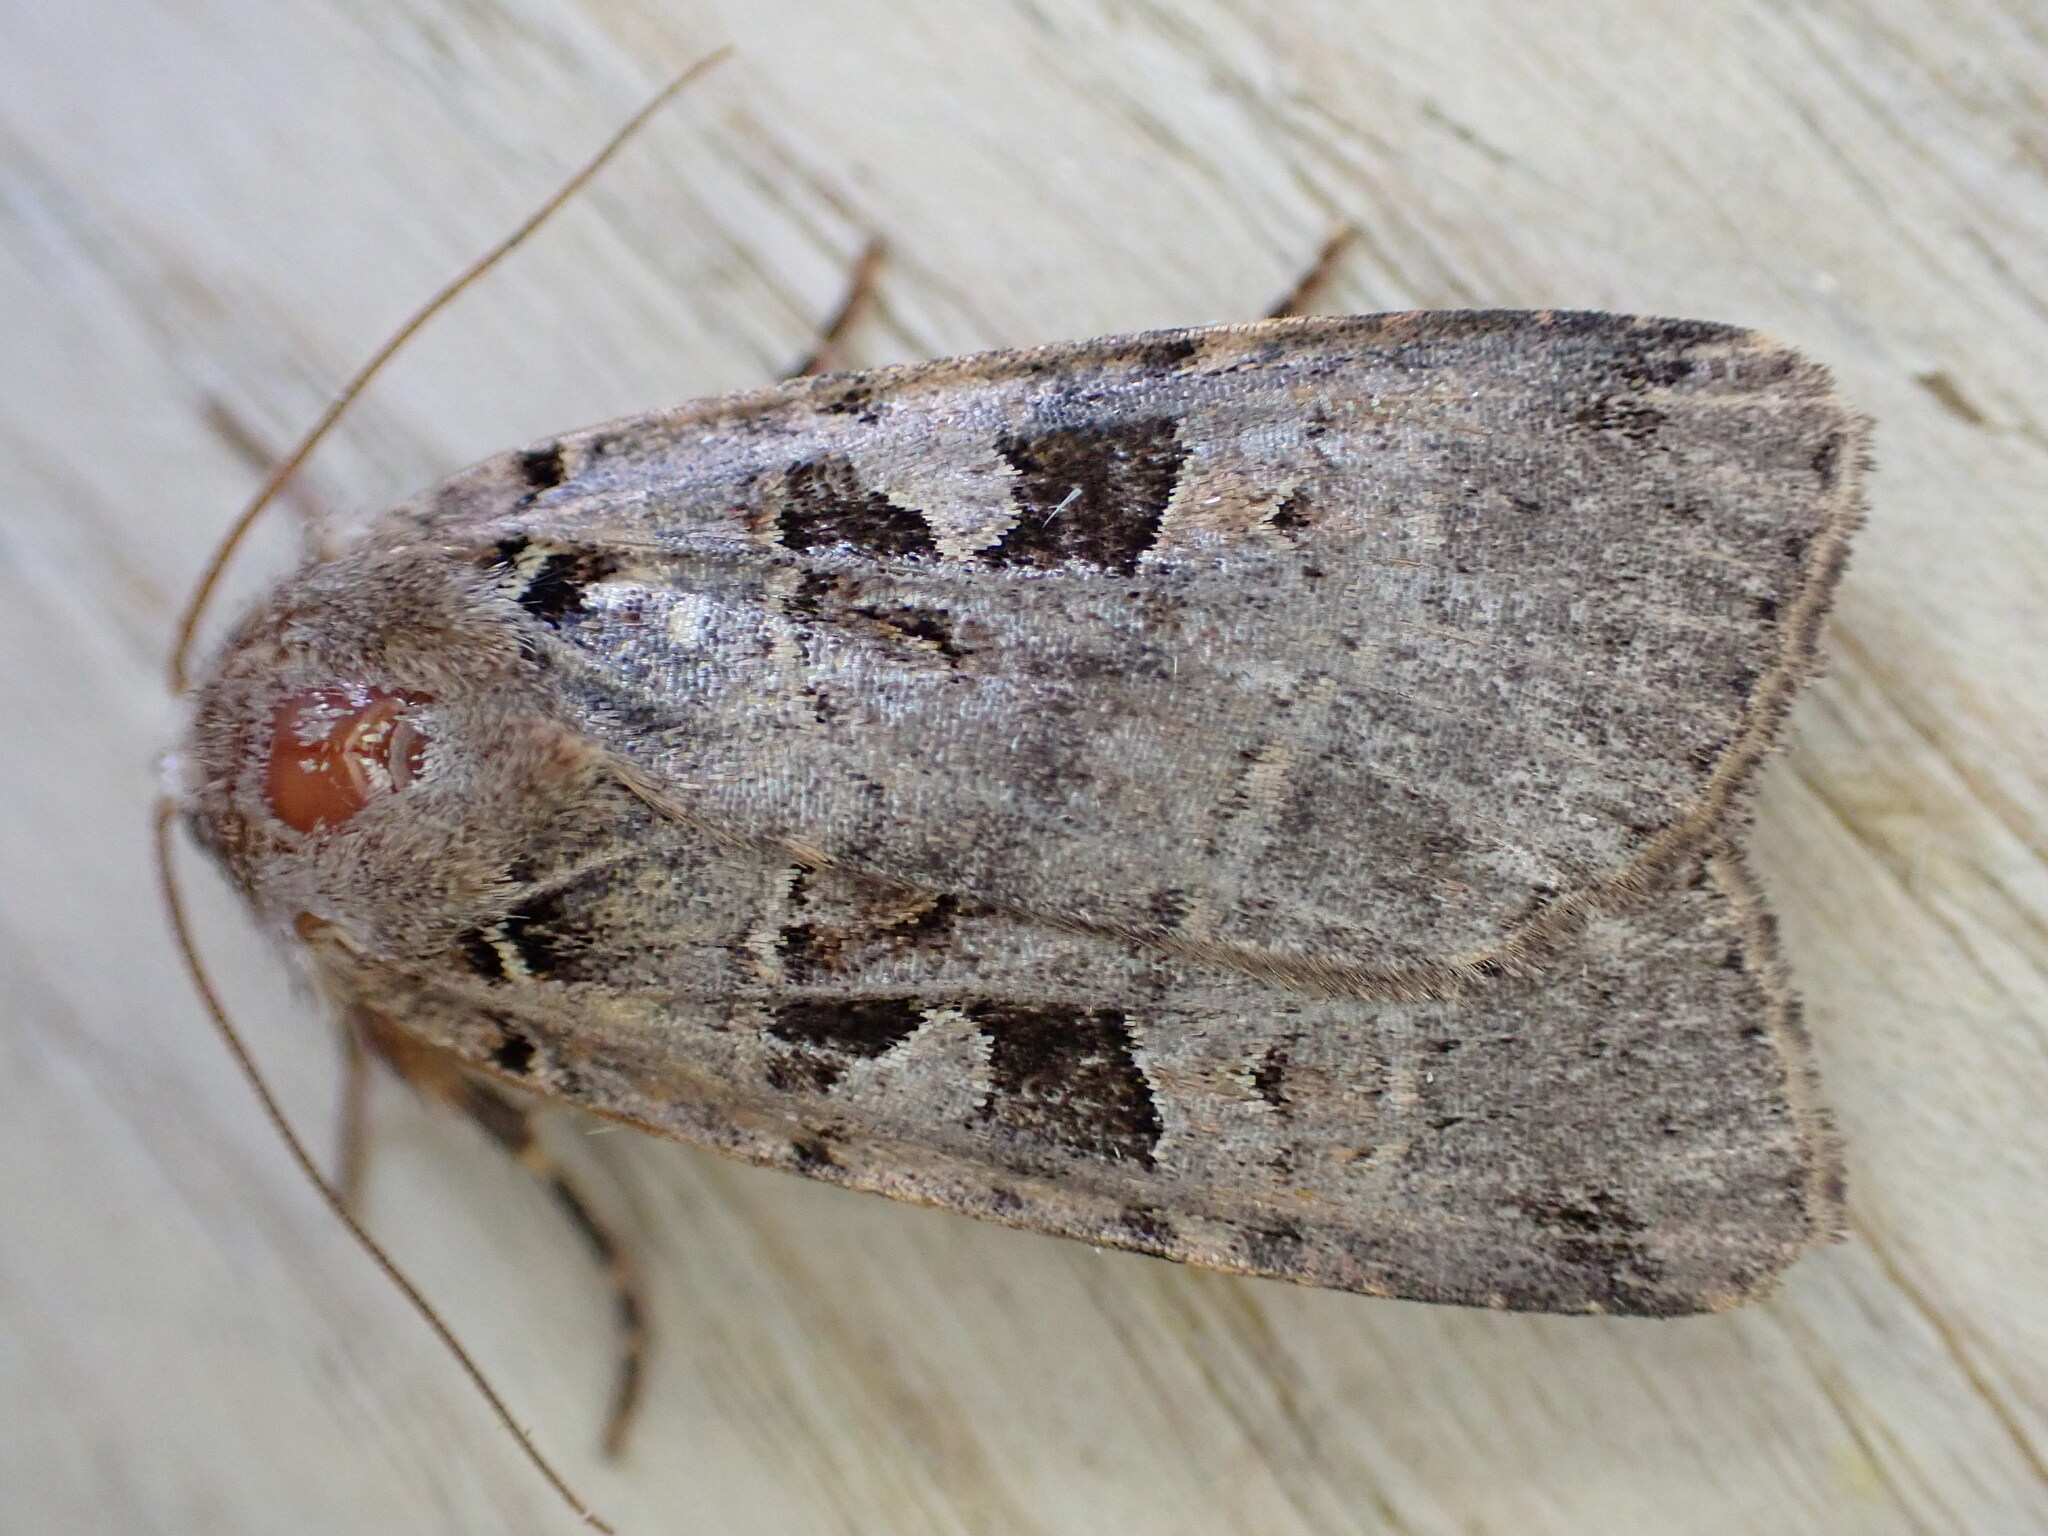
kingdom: Animalia
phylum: Arthropoda
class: Insecta
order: Lepidoptera
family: Noctuidae
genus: Xestia
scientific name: Xestia triangulum
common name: Double square-spot
